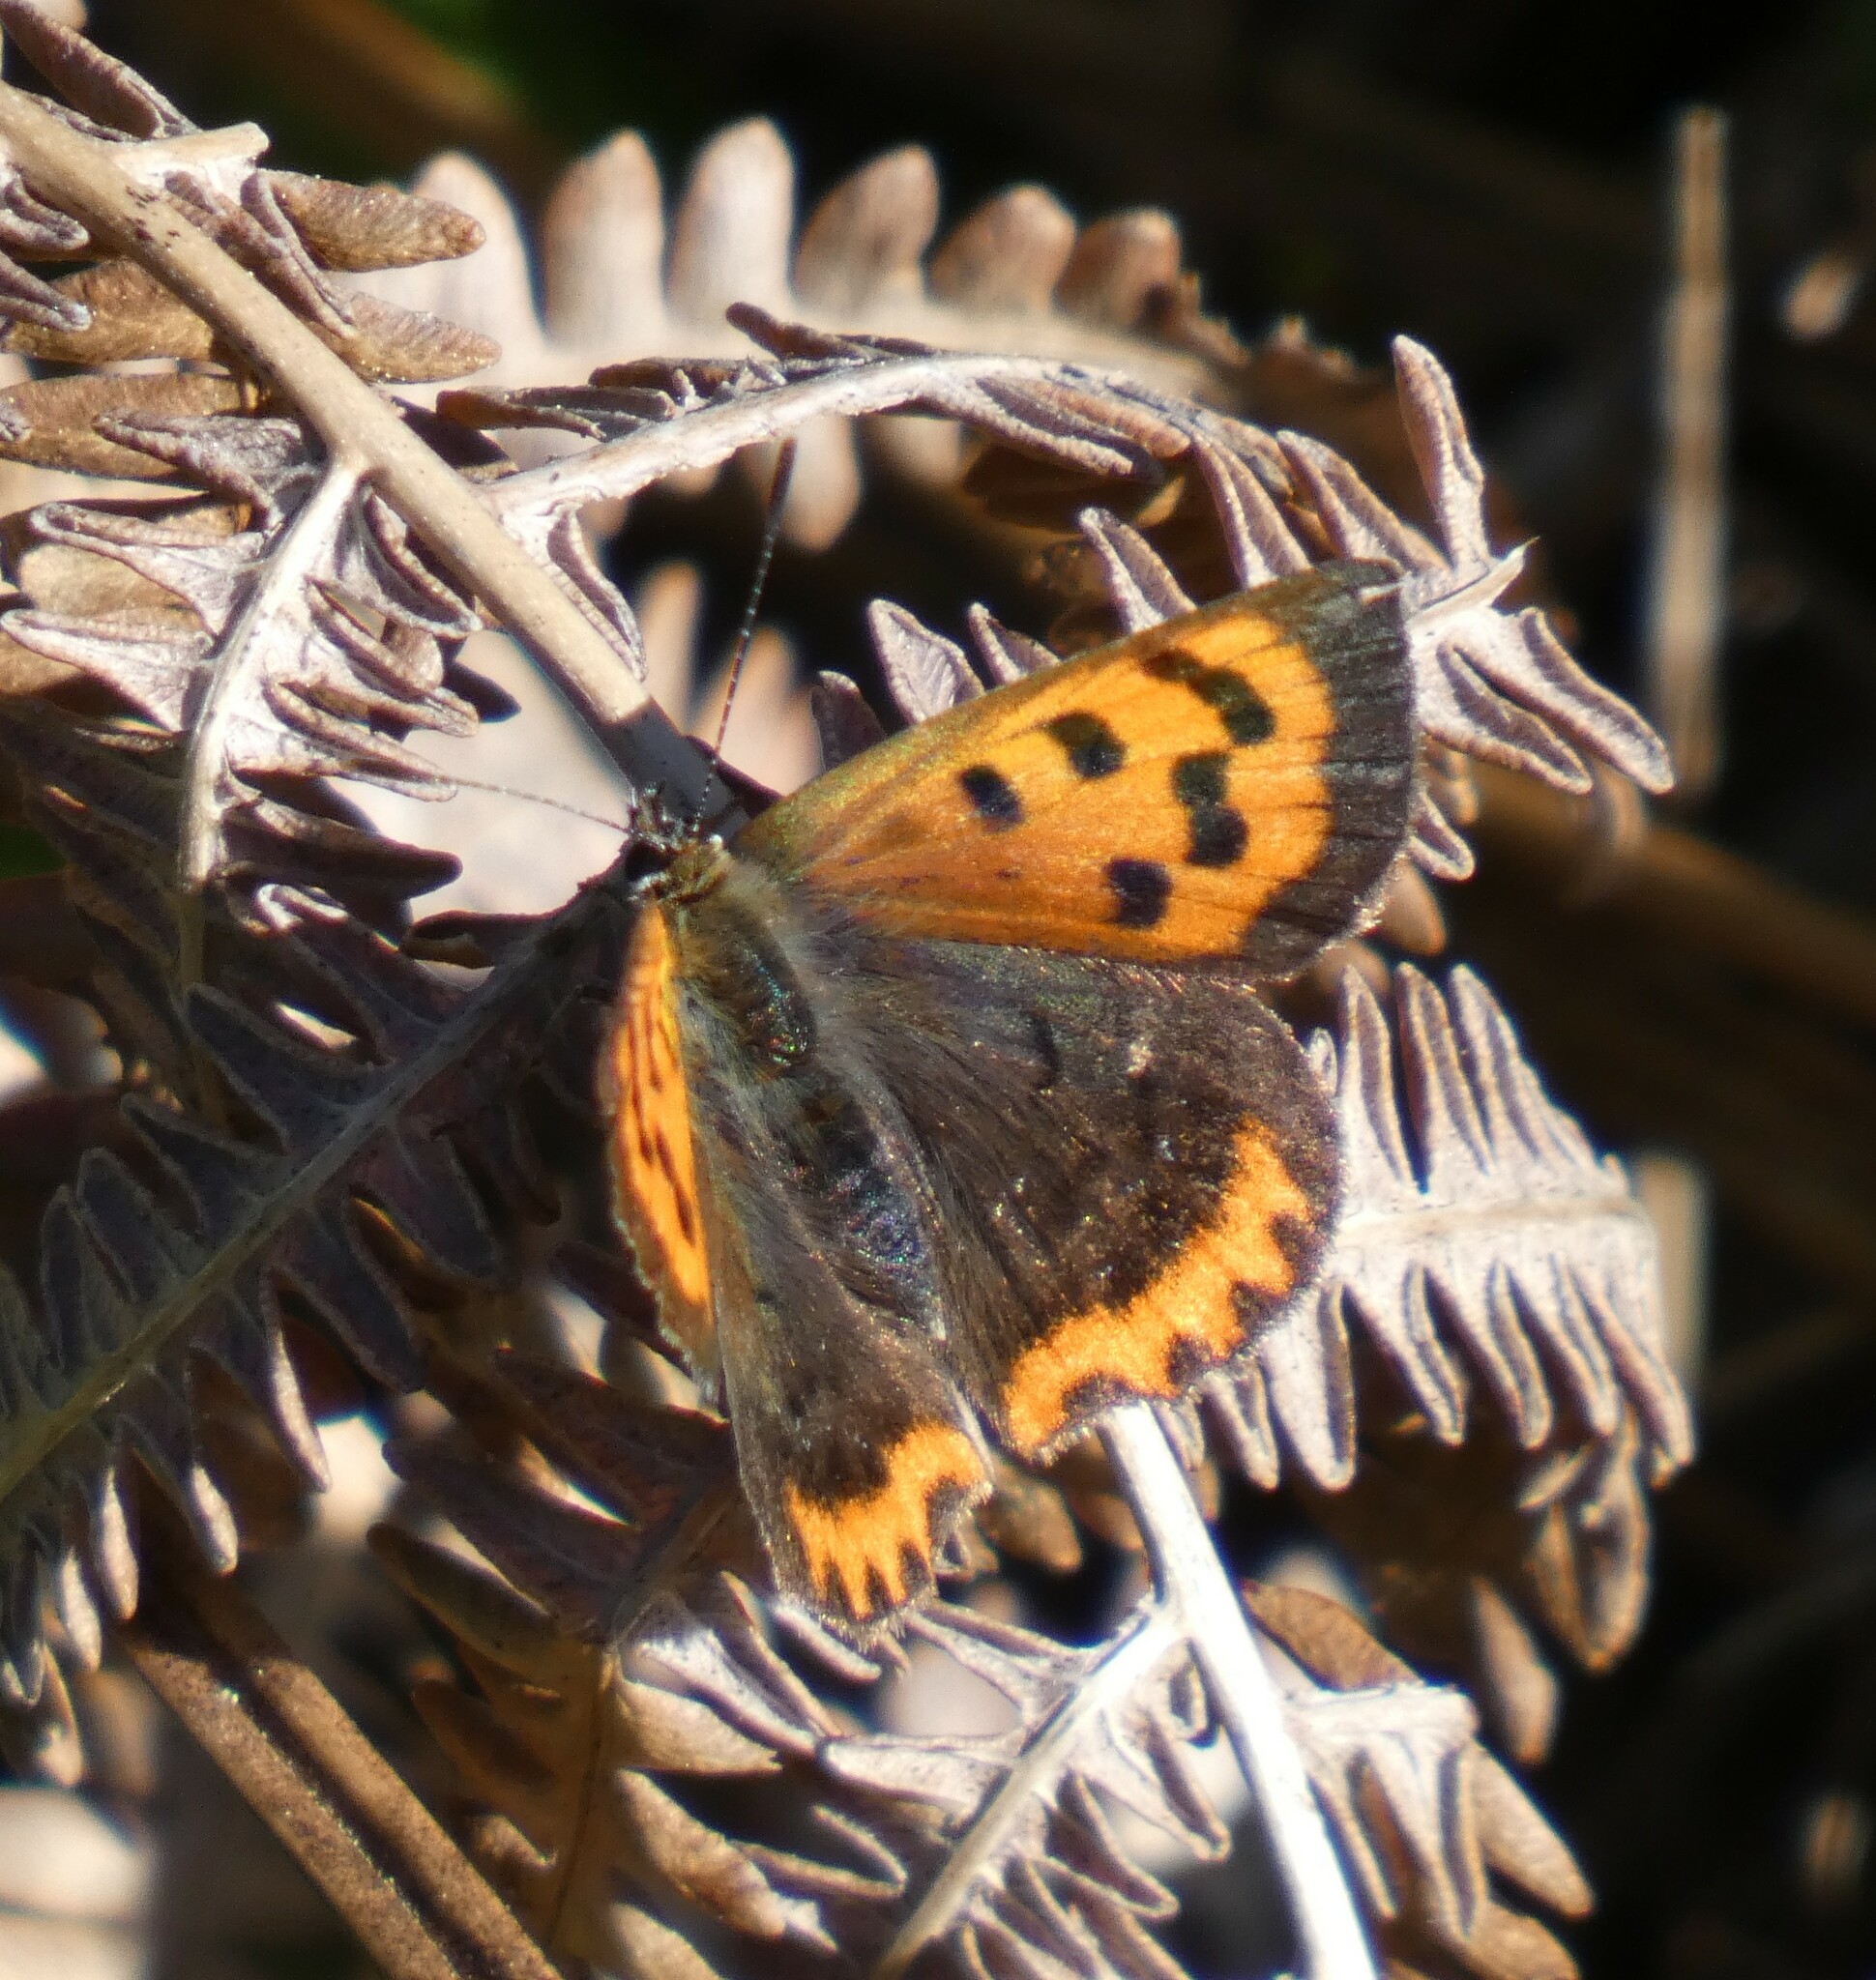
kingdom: Animalia
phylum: Arthropoda
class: Insecta
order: Lepidoptera
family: Lycaenidae
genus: Lycaena
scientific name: Lycaena phlaeas
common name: Small copper
